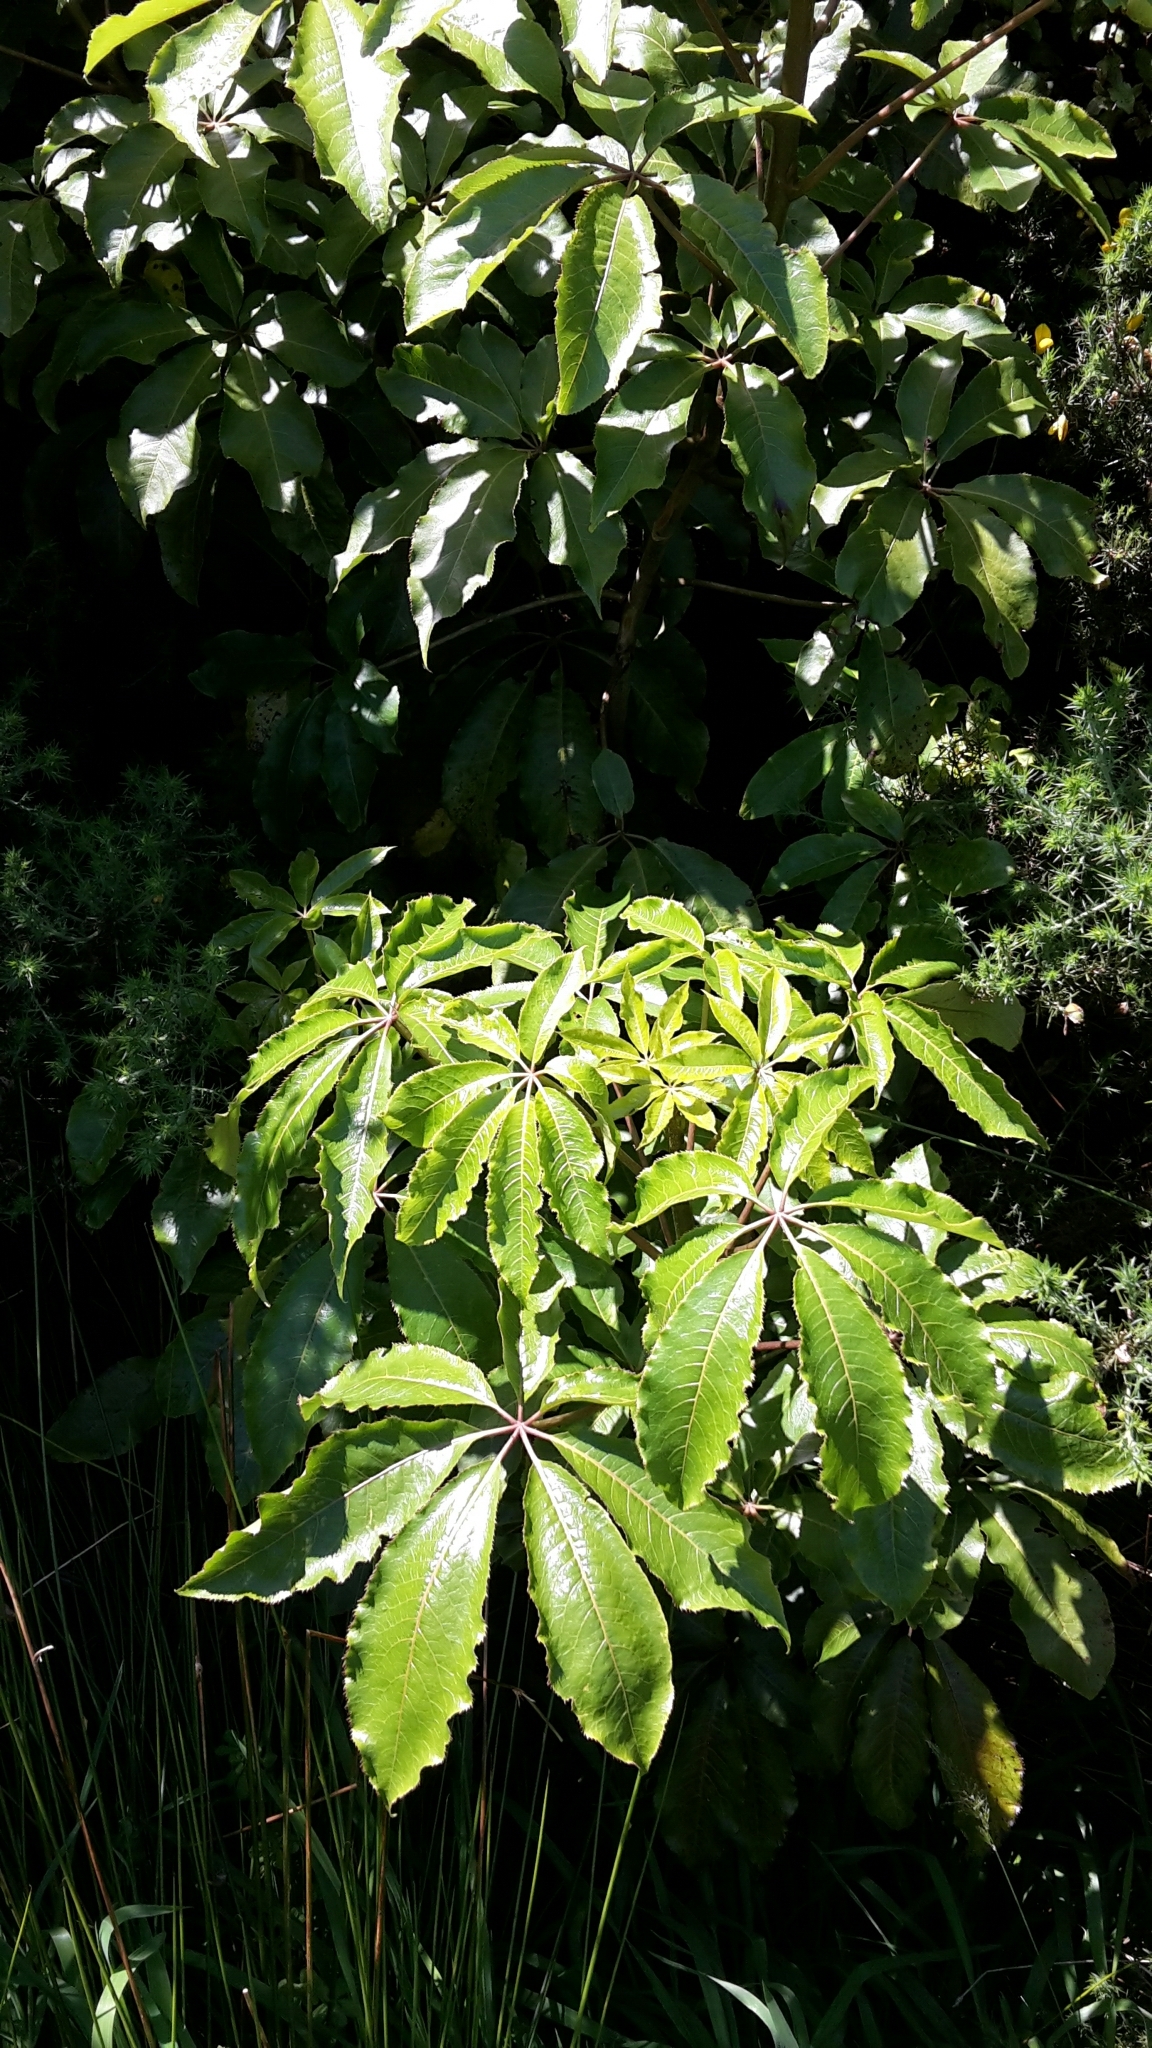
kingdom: Plantae
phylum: Tracheophyta
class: Magnoliopsida
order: Apiales
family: Araliaceae
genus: Schefflera
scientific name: Schefflera digitata
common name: Pate
